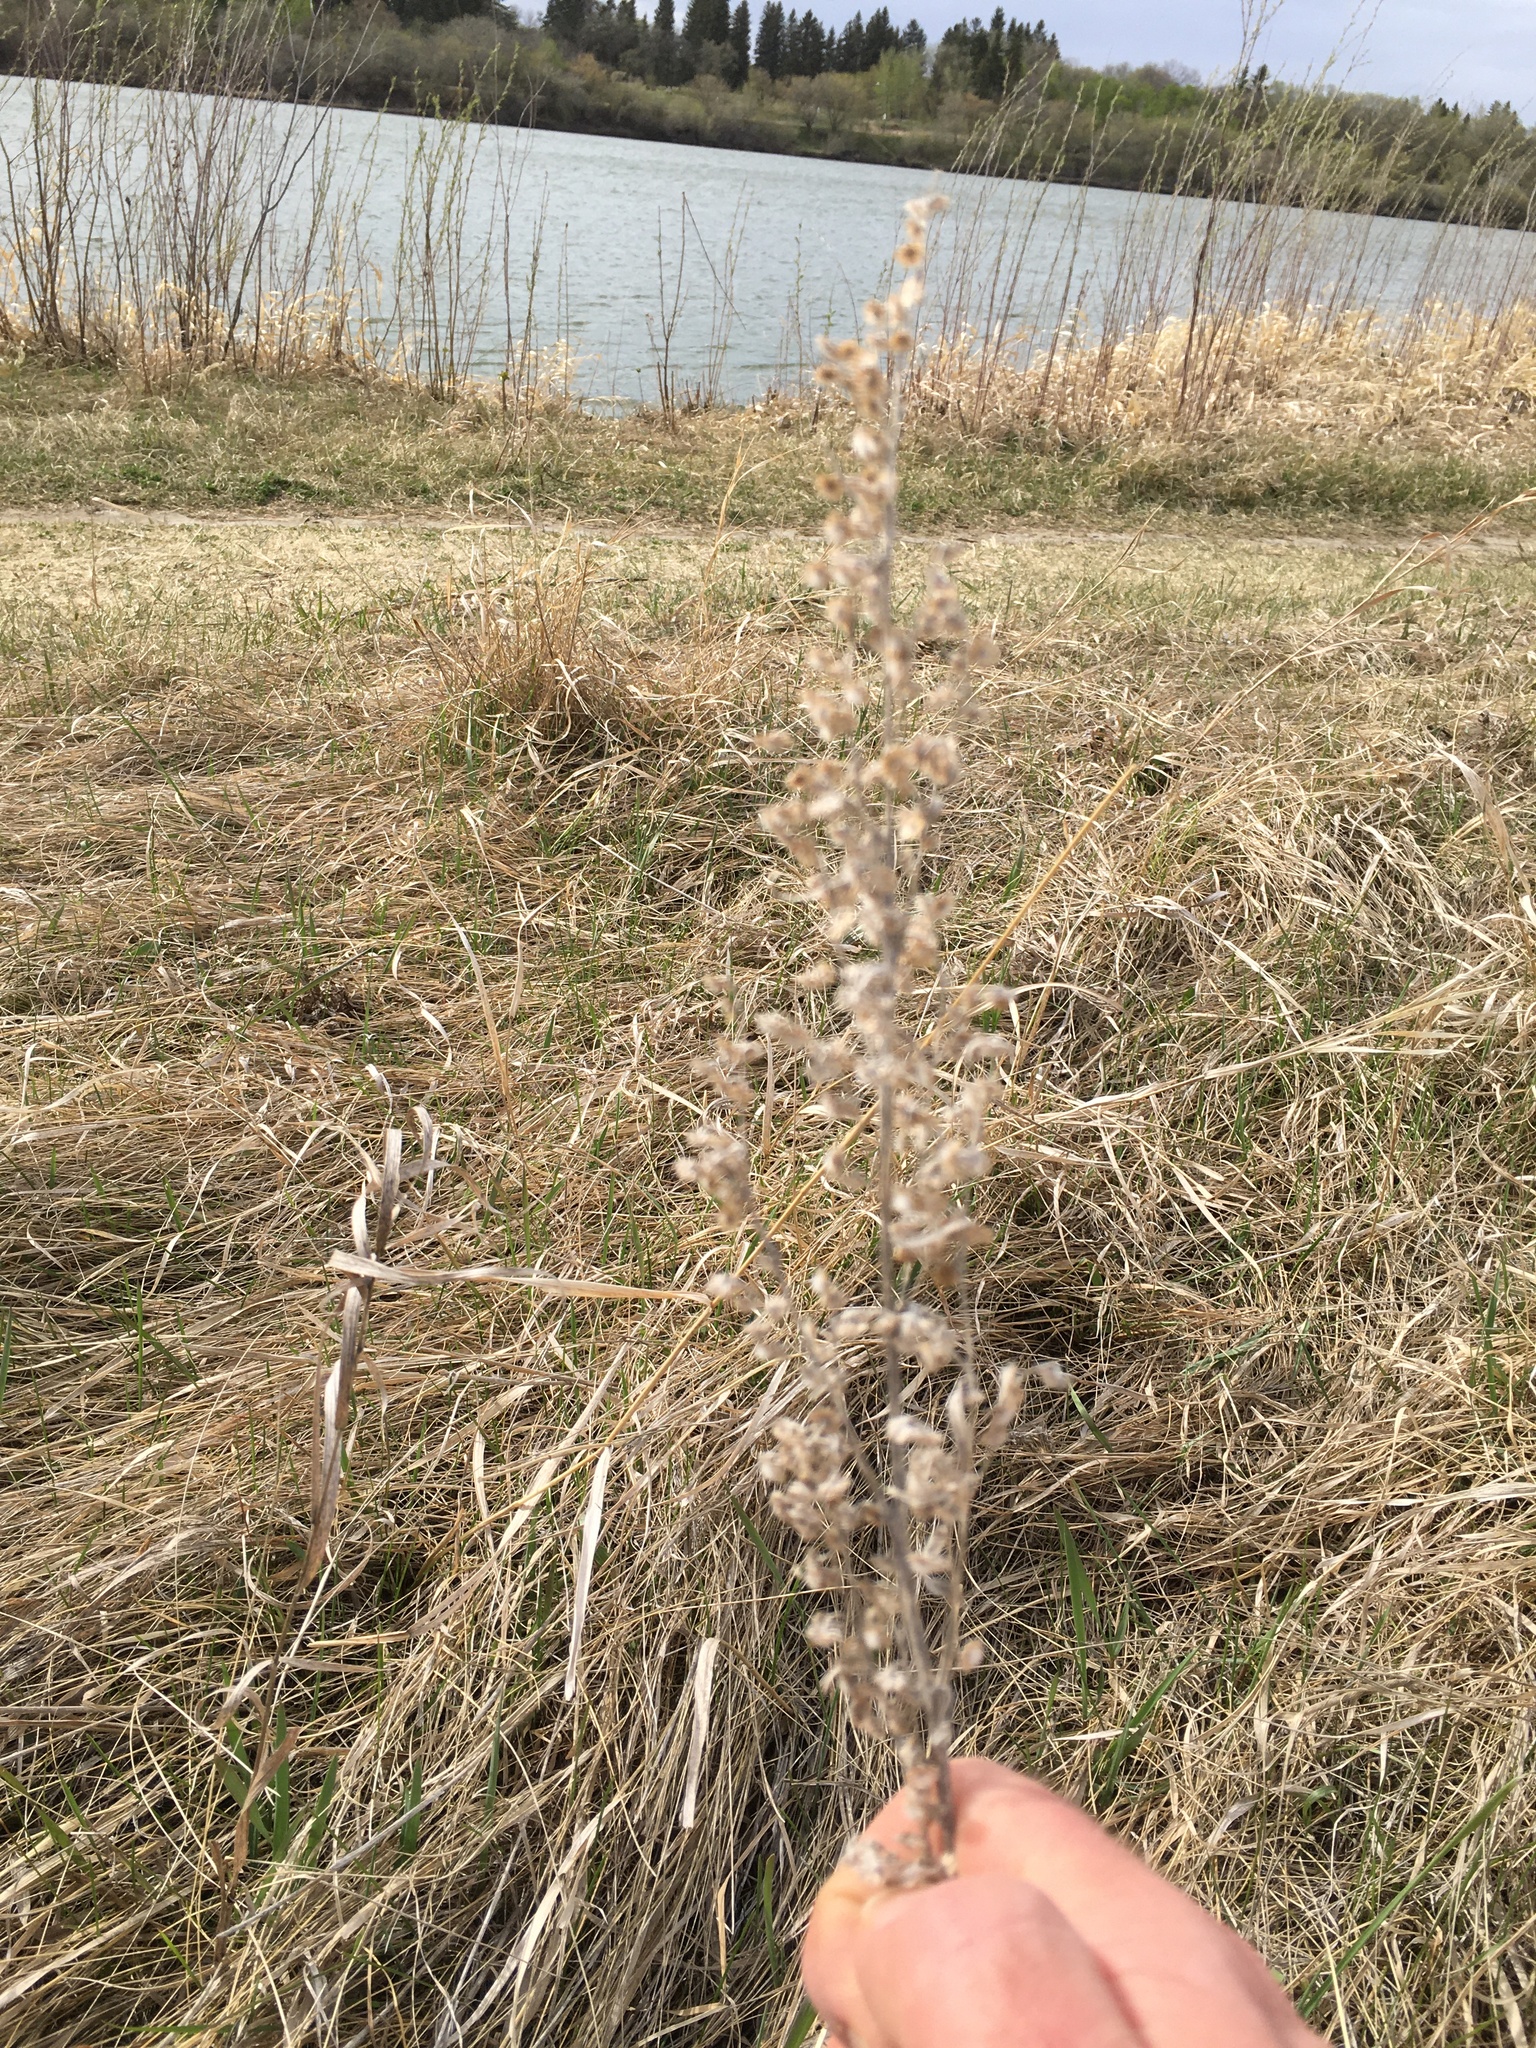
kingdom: Plantae
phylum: Tracheophyta
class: Magnoliopsida
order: Asterales
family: Asteraceae
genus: Artemisia
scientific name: Artemisia absinthium
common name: Wormwood
